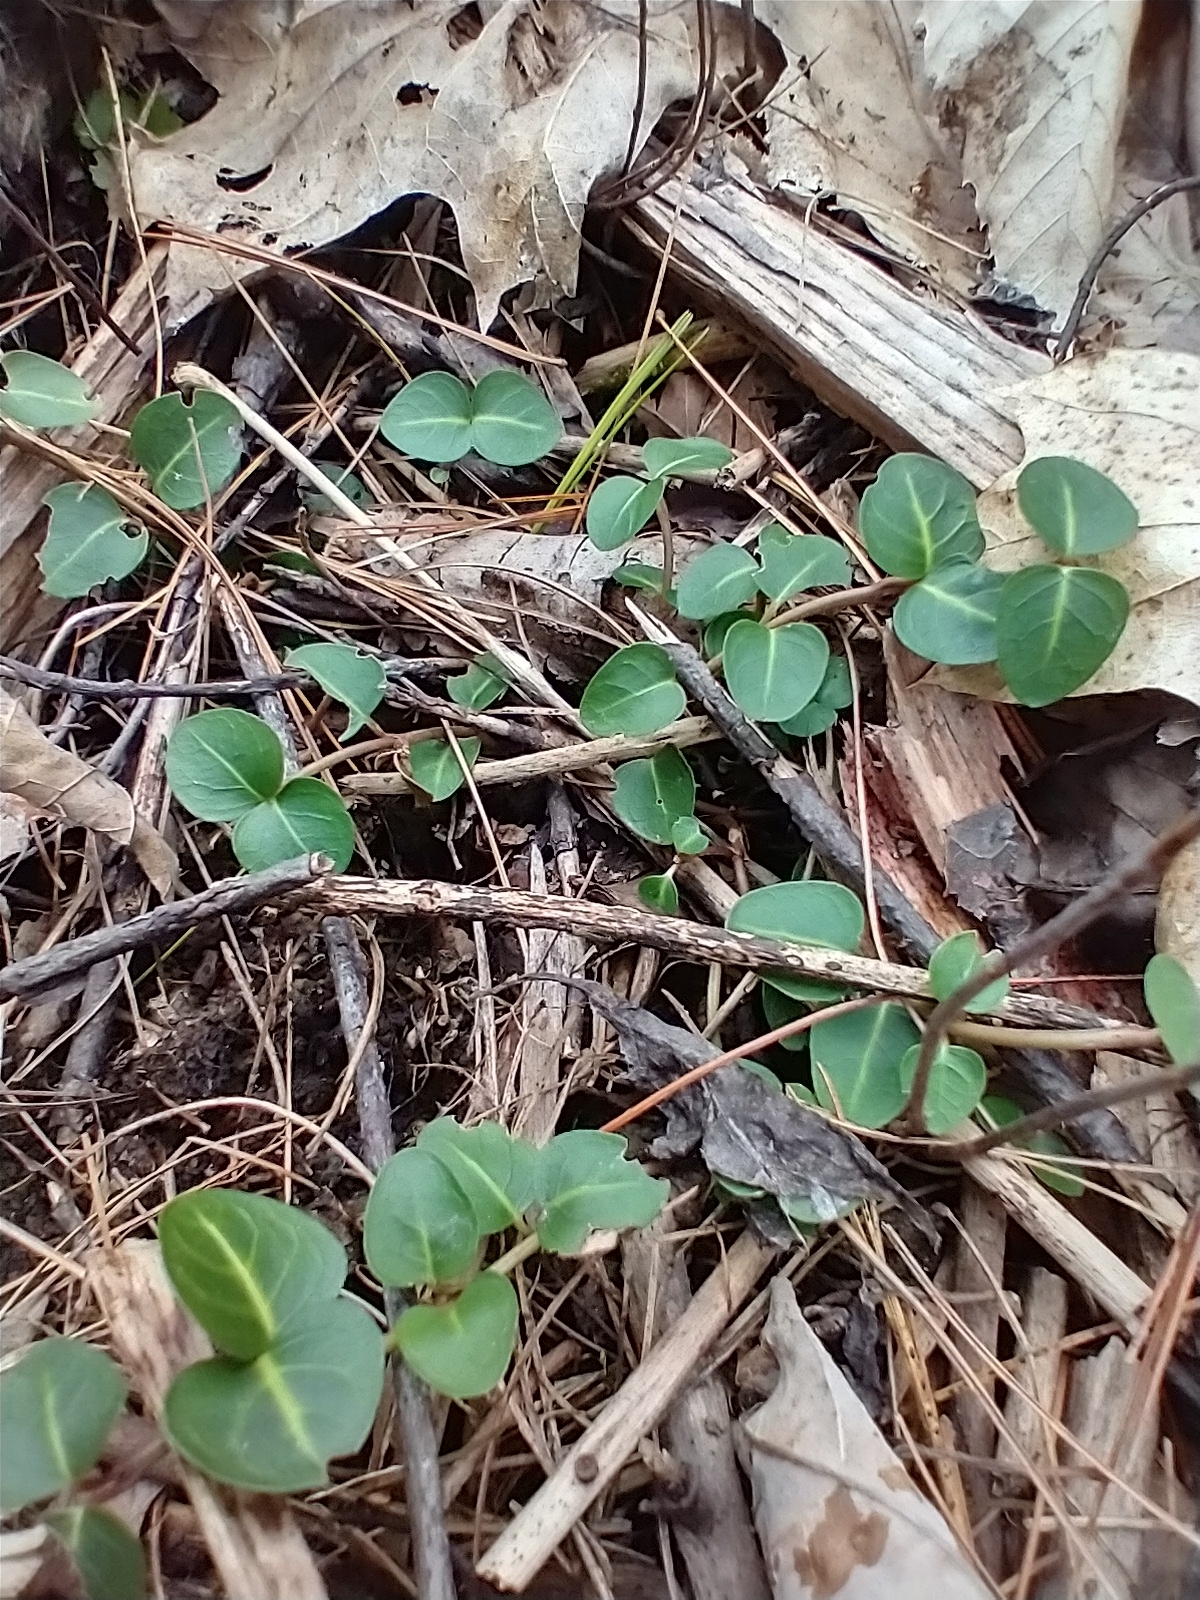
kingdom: Plantae
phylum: Tracheophyta
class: Magnoliopsida
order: Gentianales
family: Rubiaceae
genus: Mitchella
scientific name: Mitchella repens
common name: Partridge-berry
